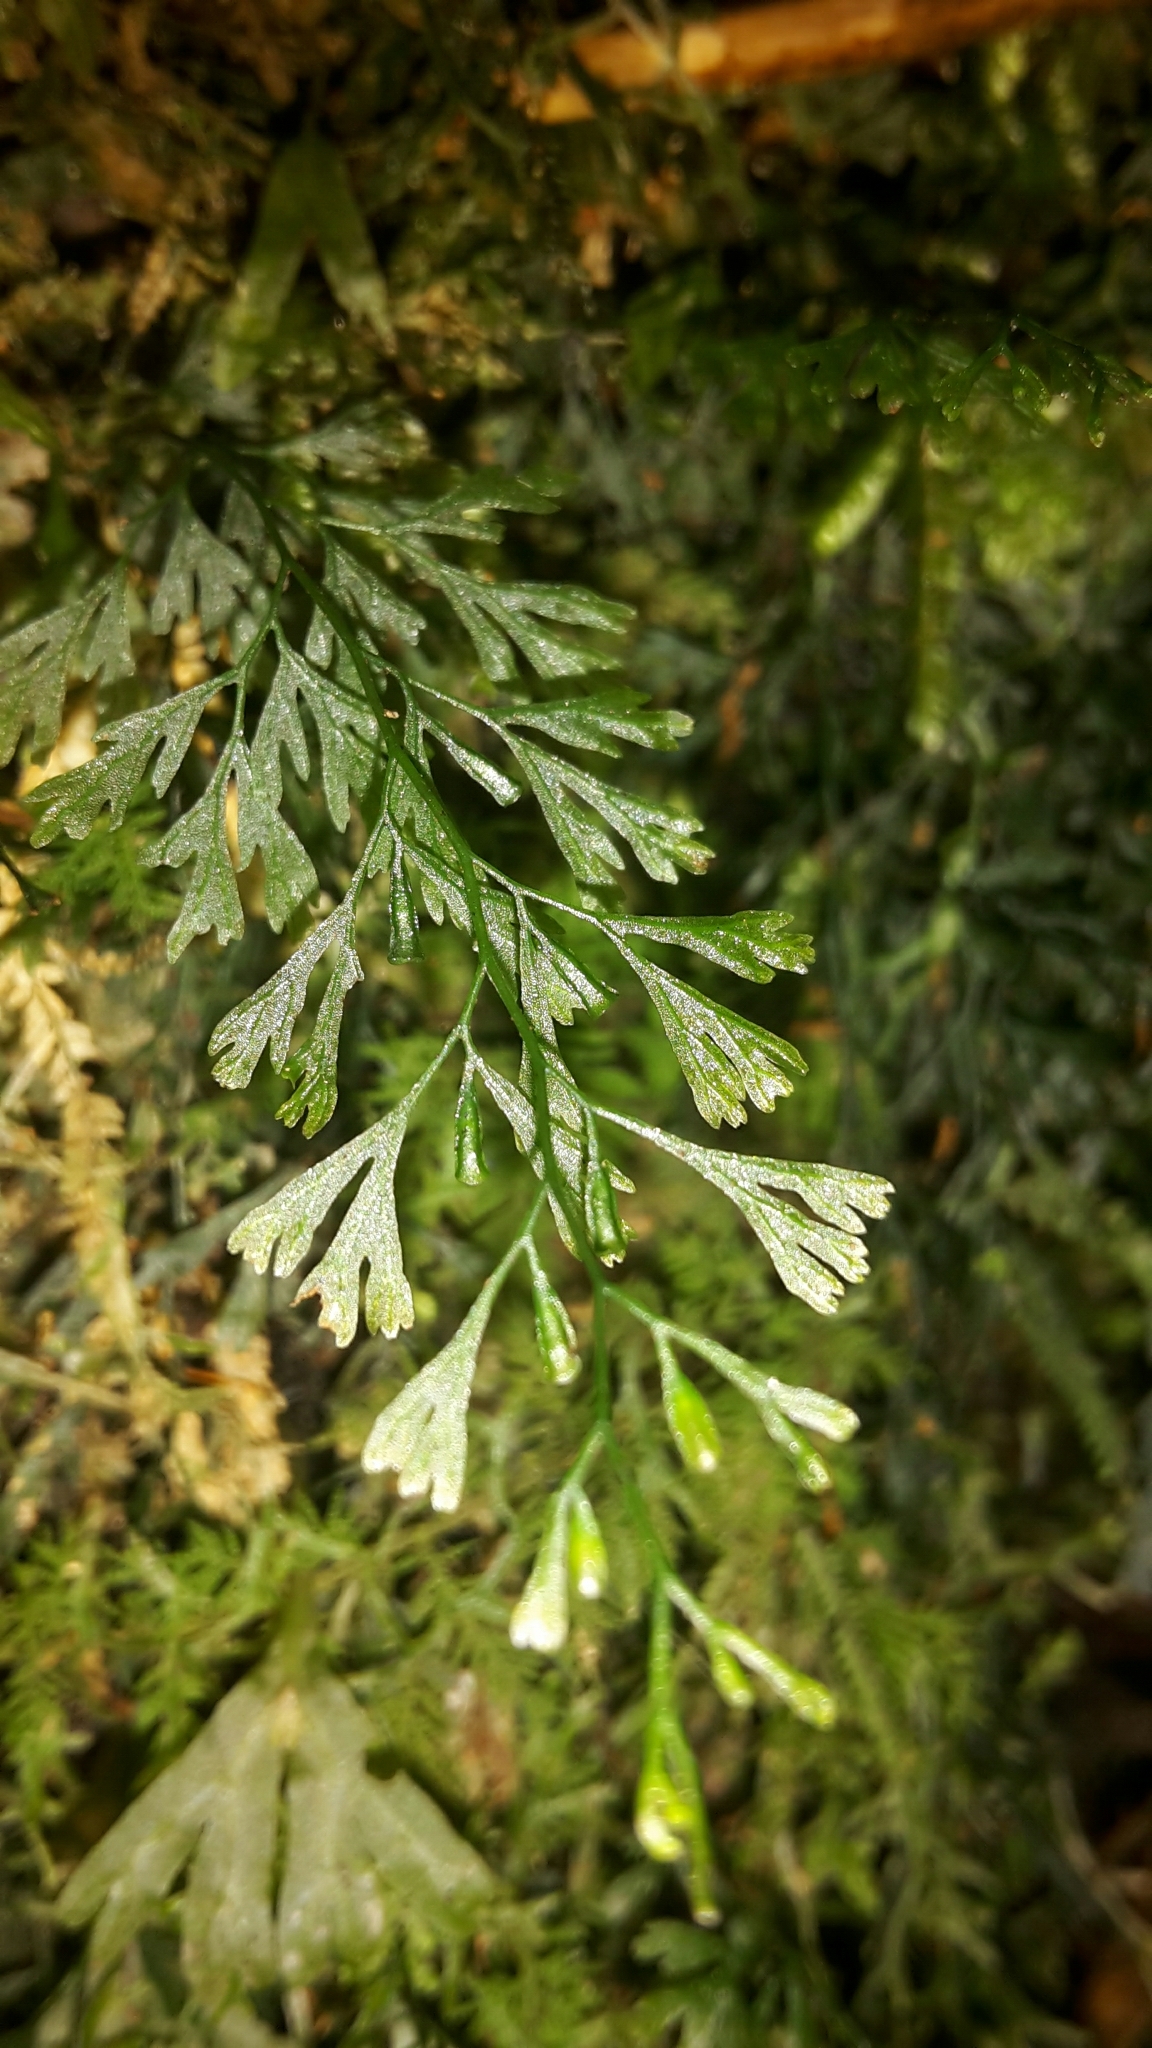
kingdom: Plantae
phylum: Tracheophyta
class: Polypodiopsida
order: Hymenophyllales
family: Hymenophyllaceae
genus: Polyphlebium
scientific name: Polyphlebium colensoi
